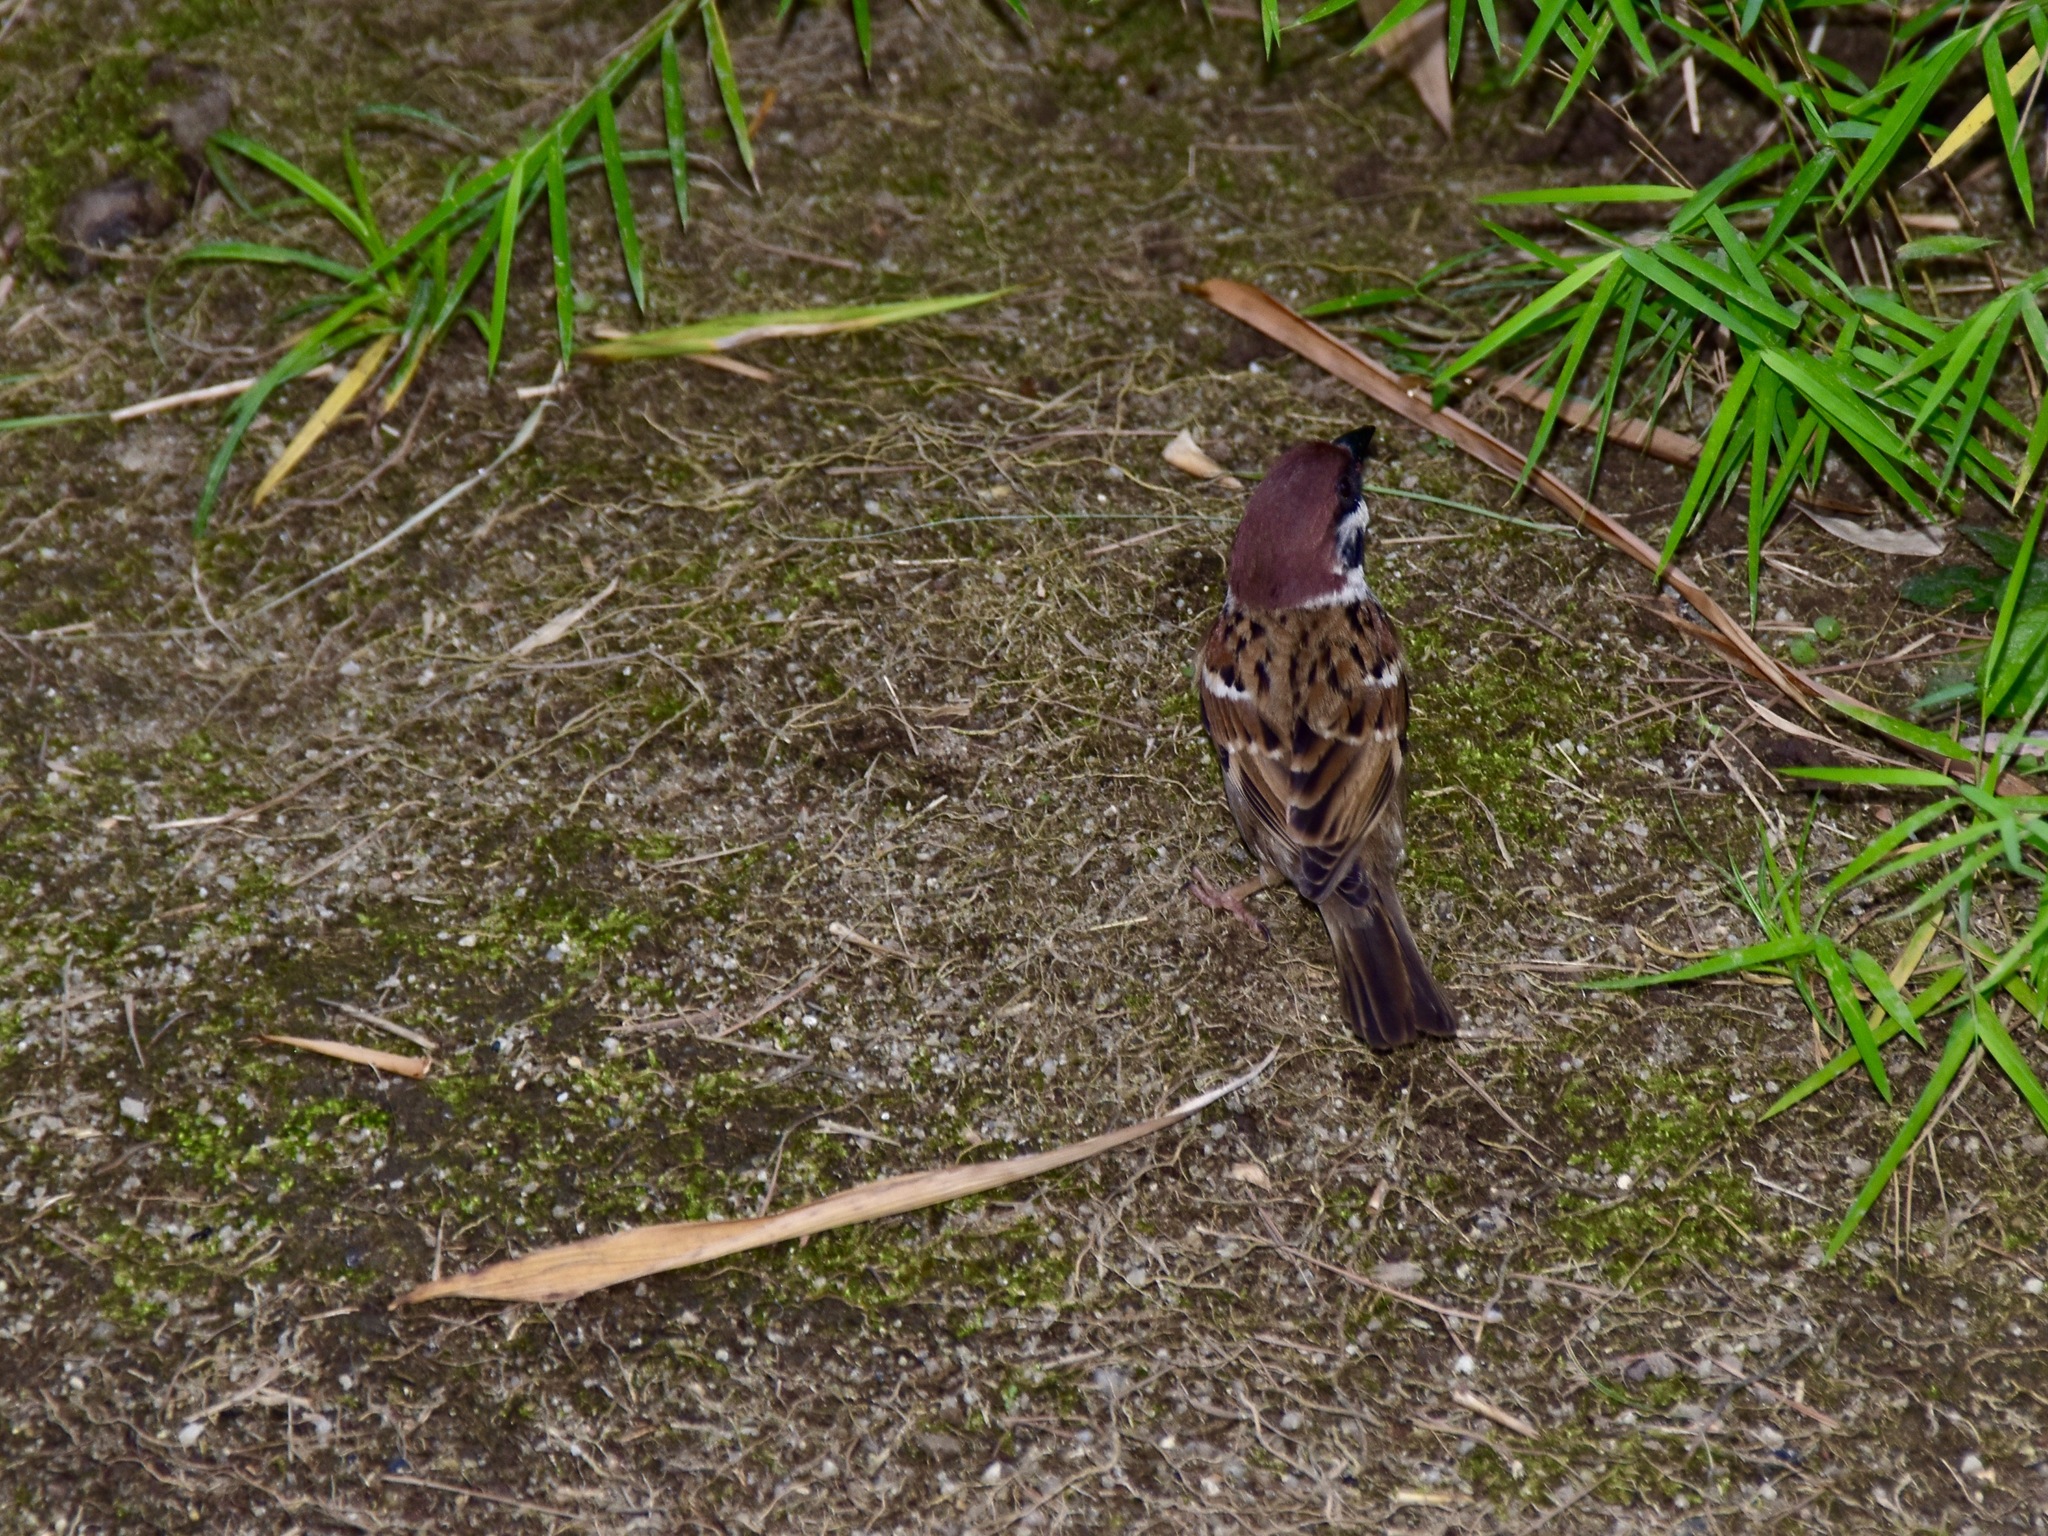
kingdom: Animalia
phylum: Chordata
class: Aves
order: Passeriformes
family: Passeridae
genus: Passer
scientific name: Passer montanus
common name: Eurasian tree sparrow
